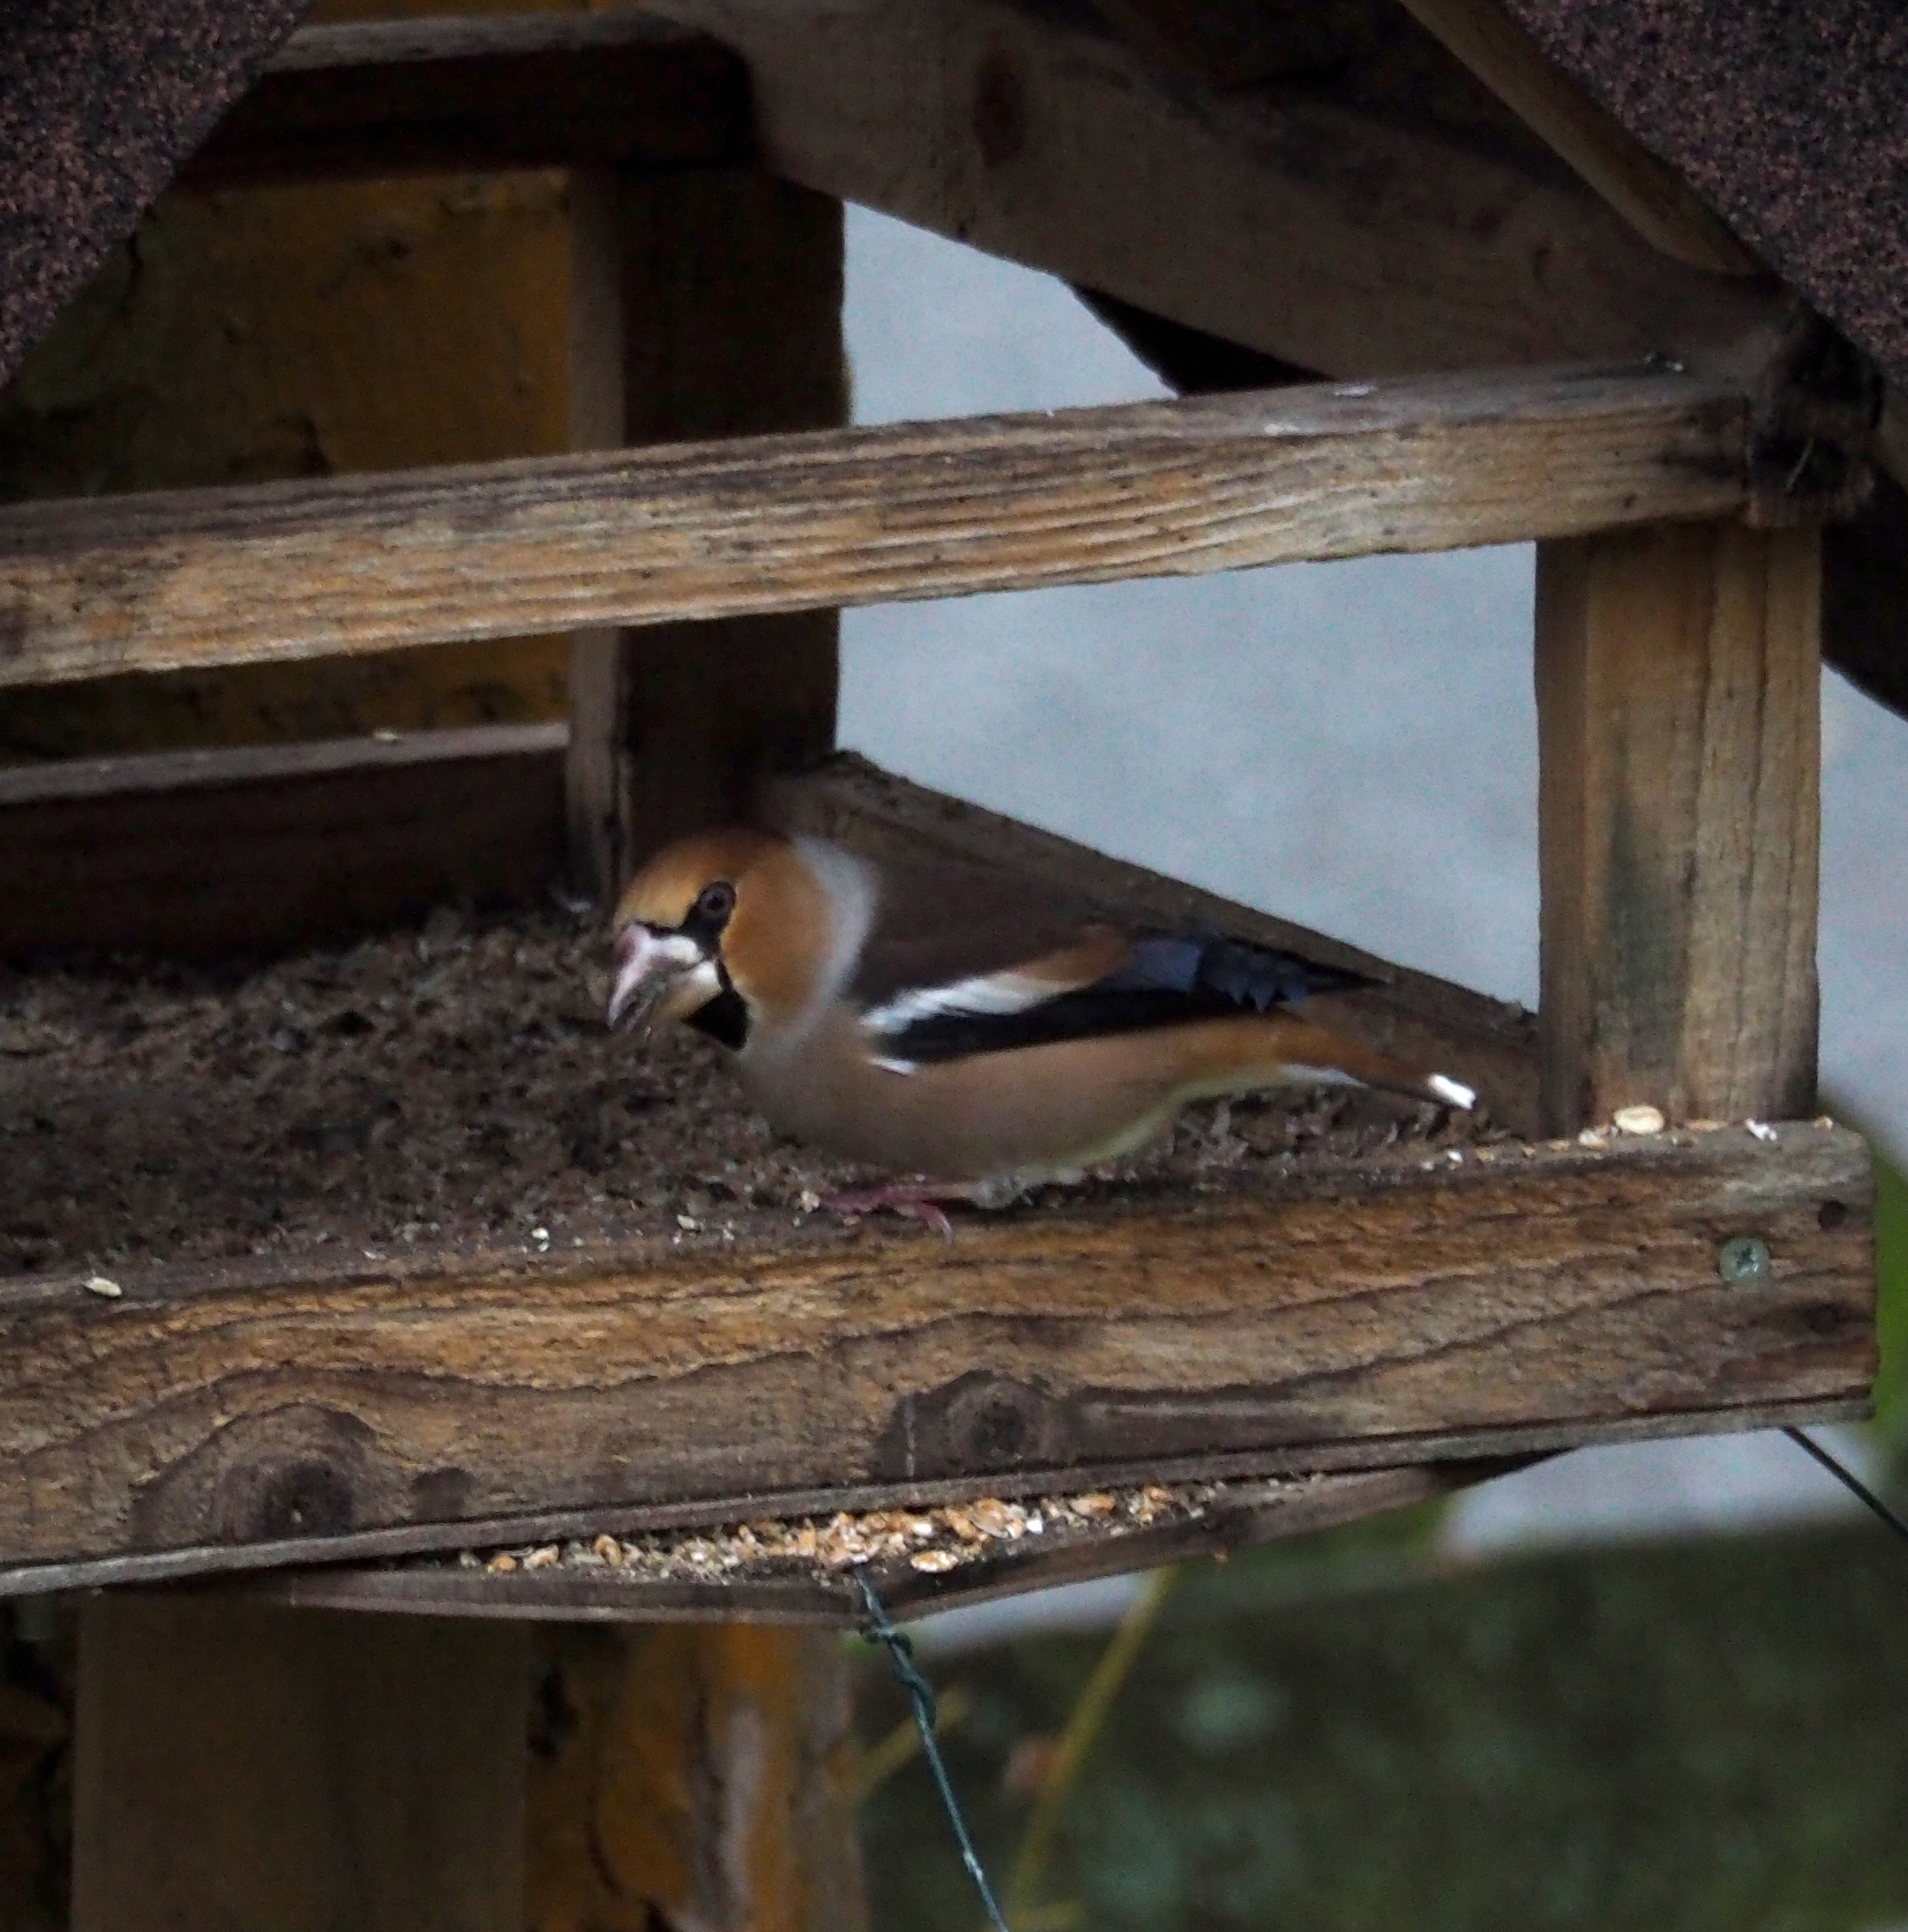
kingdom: Animalia
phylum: Chordata
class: Aves
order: Passeriformes
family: Fringillidae
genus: Coccothraustes
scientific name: Coccothraustes coccothraustes
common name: Hawfinch
